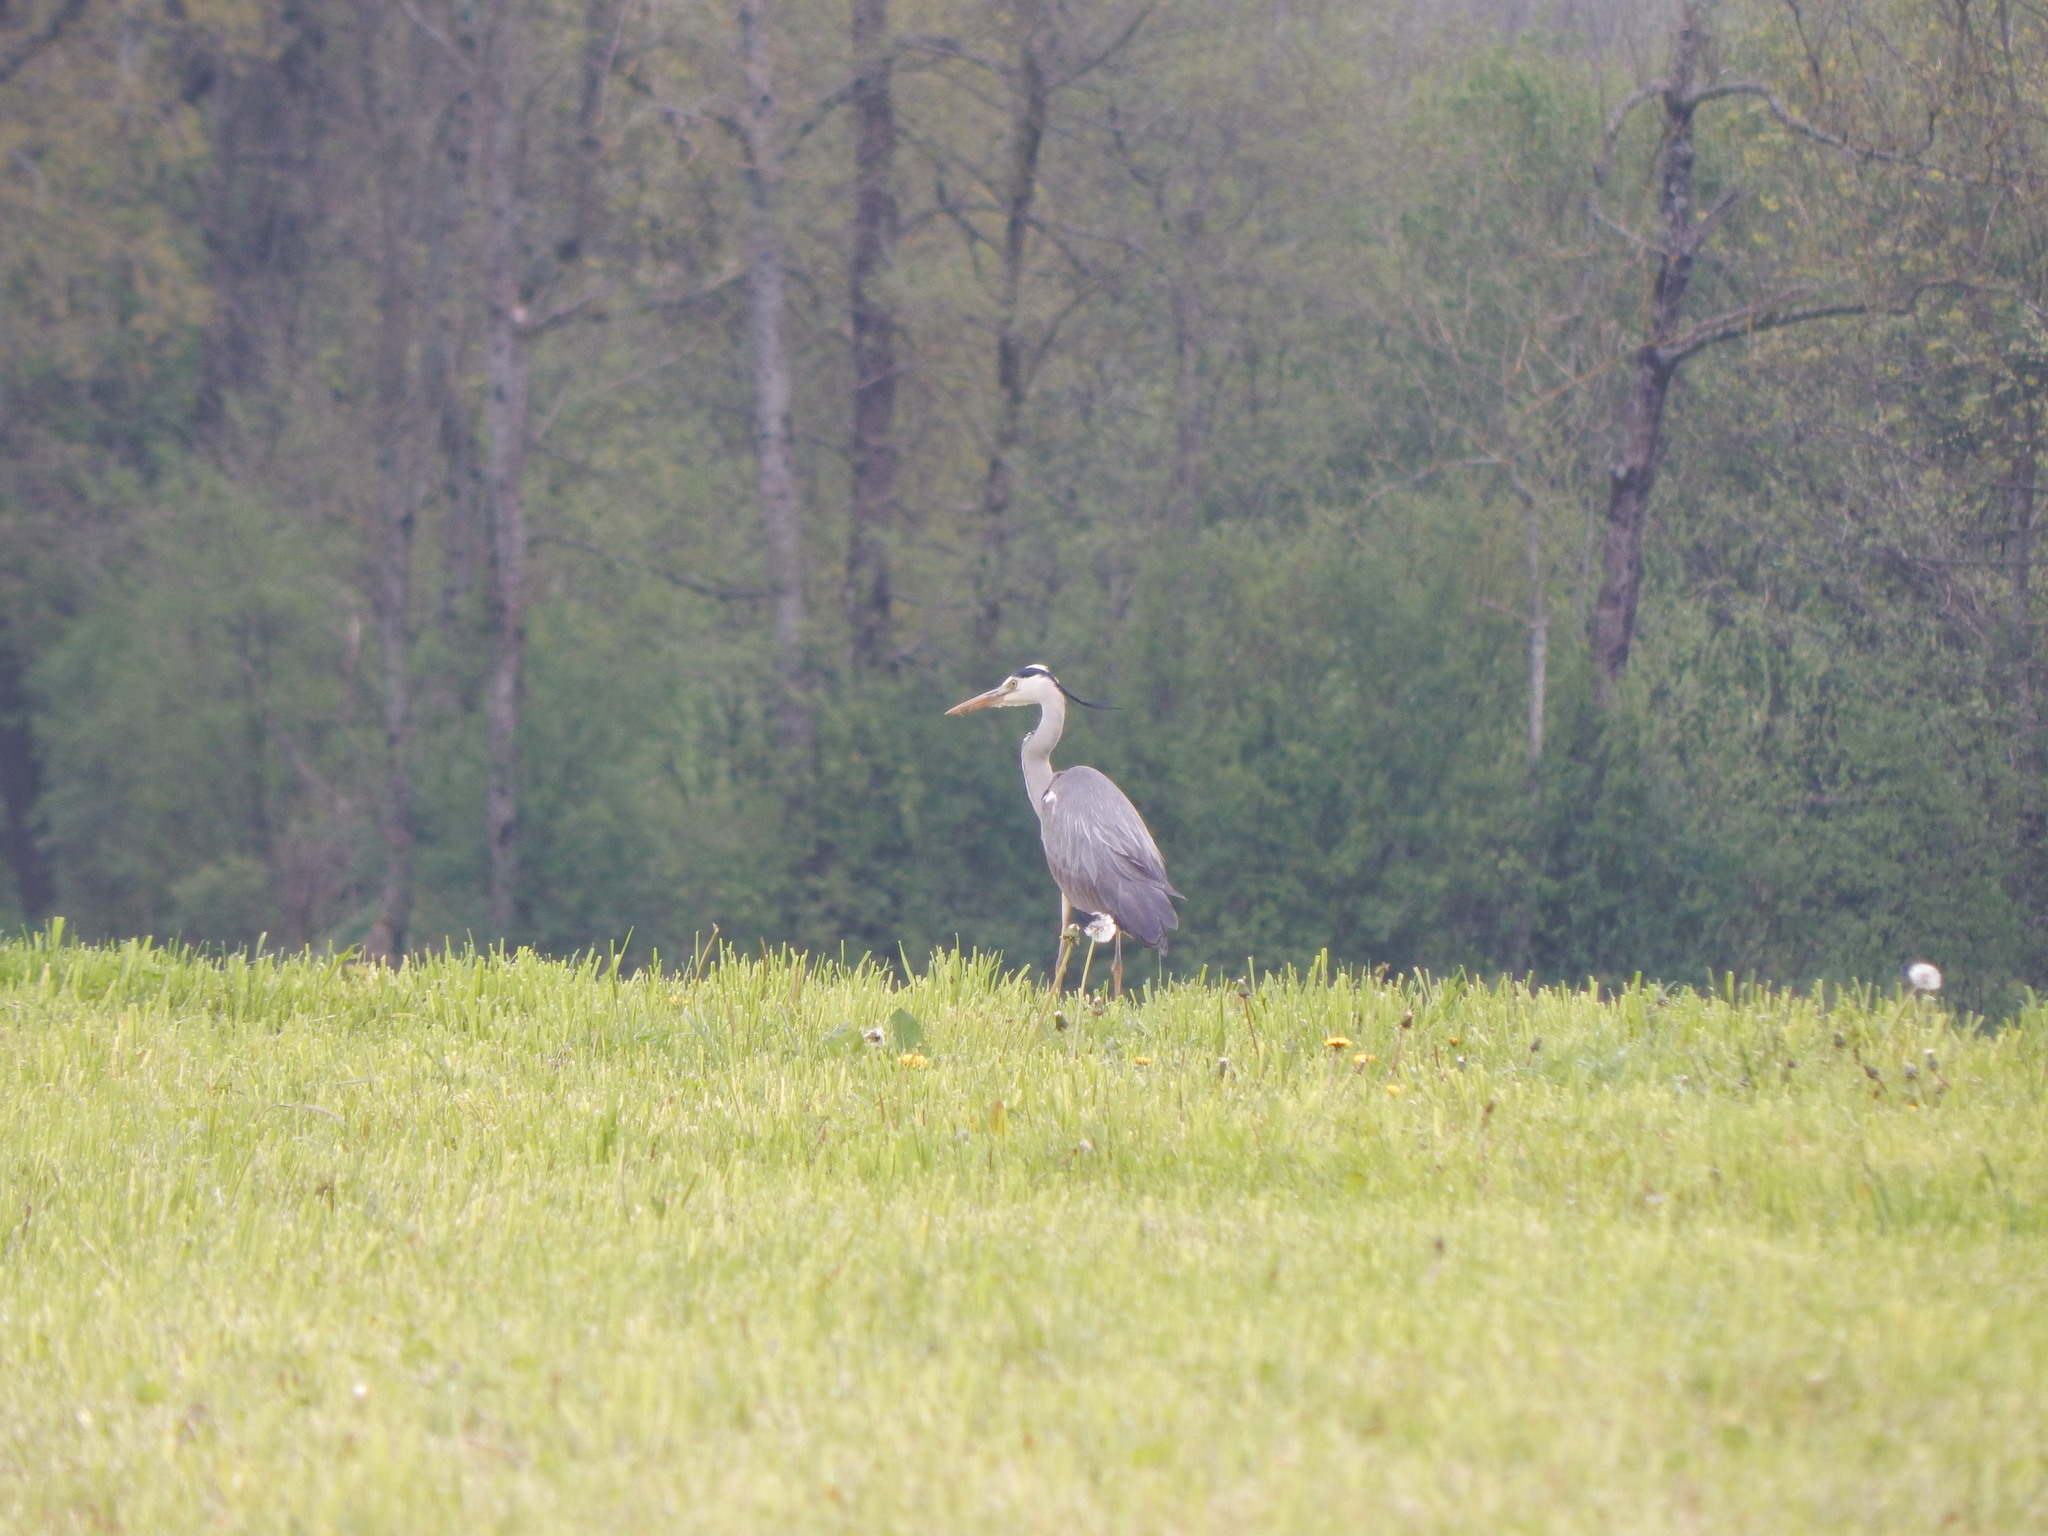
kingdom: Animalia
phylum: Chordata
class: Aves
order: Pelecaniformes
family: Ardeidae
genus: Ardea
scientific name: Ardea cinerea
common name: Grey heron
